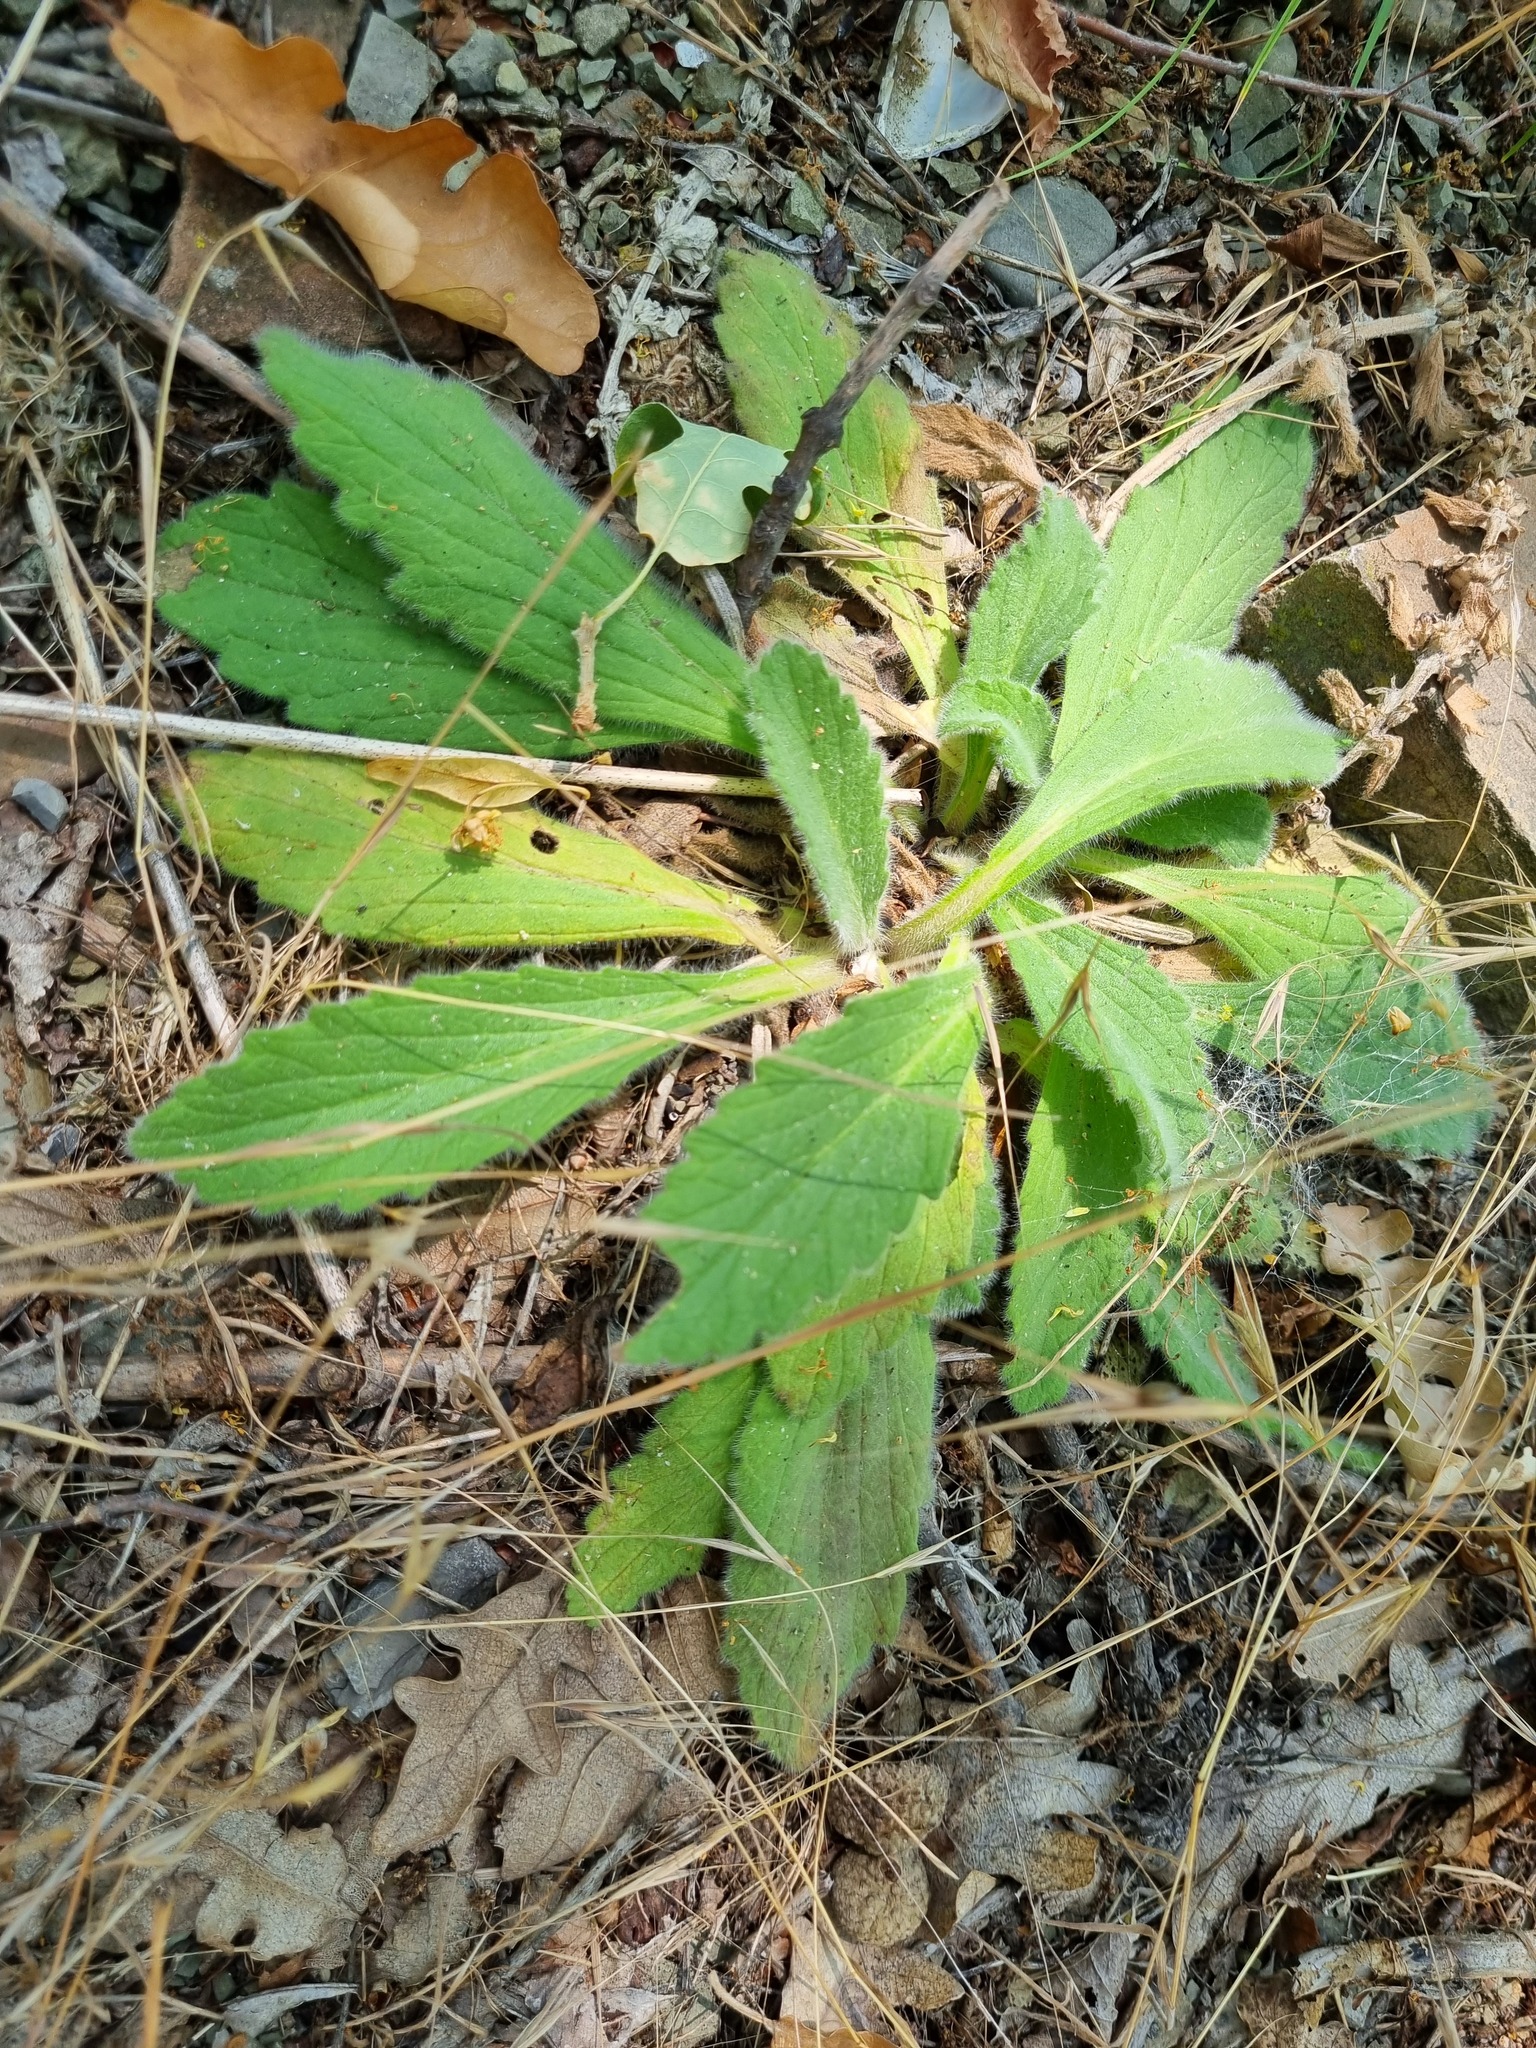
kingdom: Plantae
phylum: Tracheophyta
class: Magnoliopsida
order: Lamiales
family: Lamiaceae
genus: Ajuga
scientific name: Ajuga orientalis
